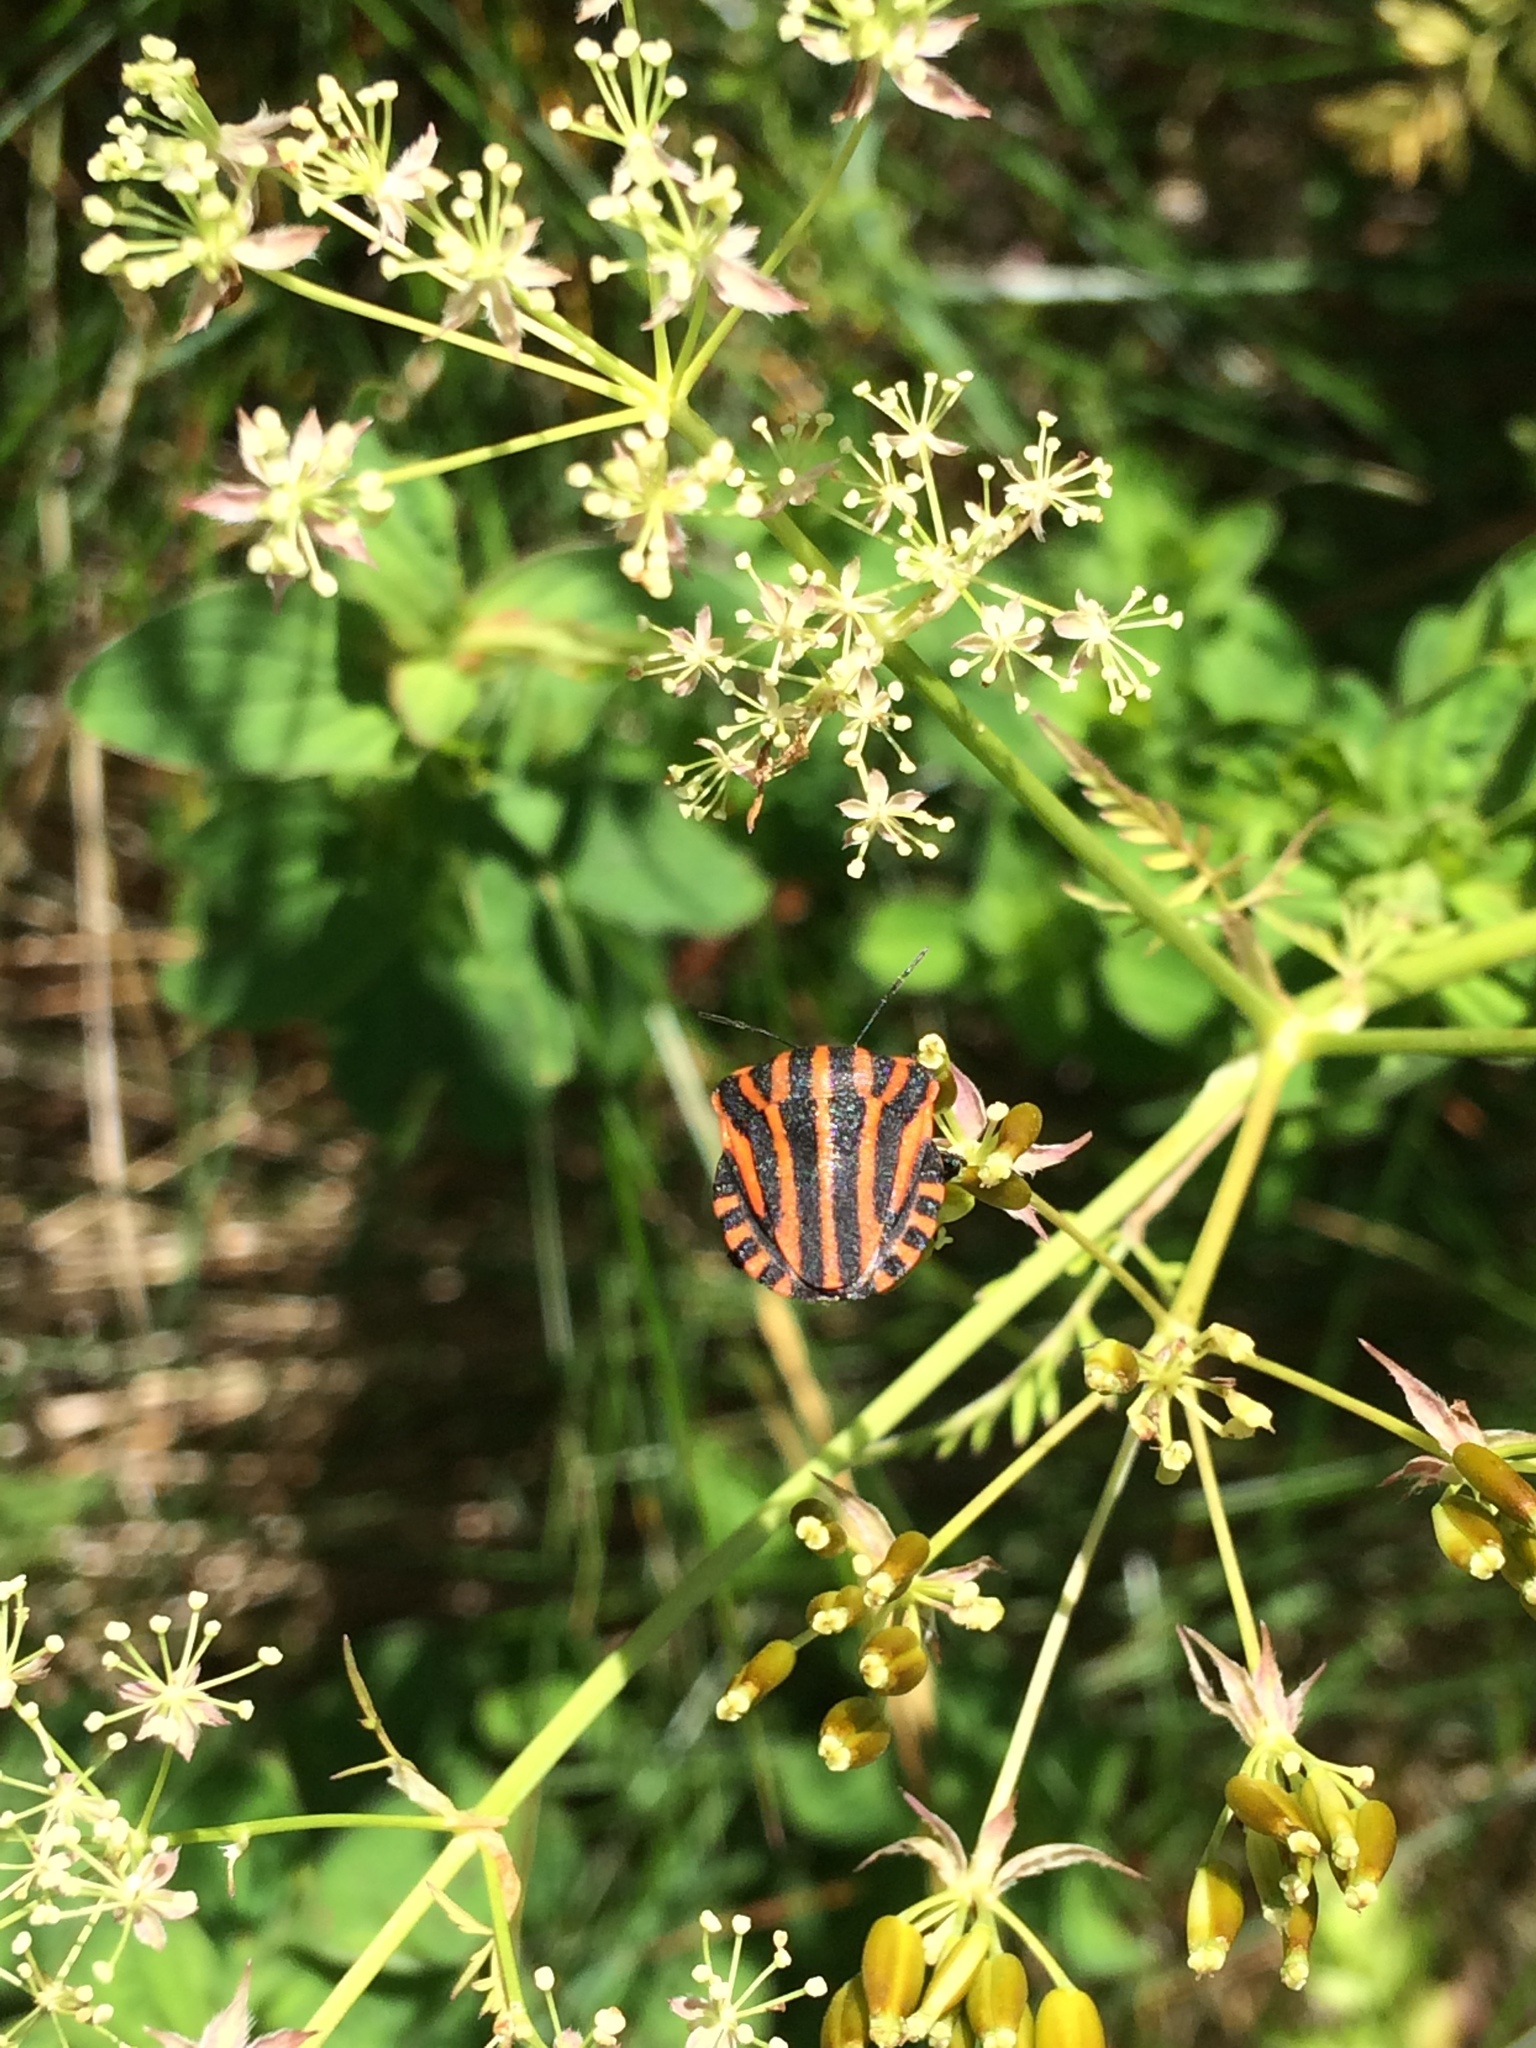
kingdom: Animalia
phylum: Arthropoda
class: Insecta
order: Hemiptera
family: Pentatomidae
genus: Graphosoma
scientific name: Graphosoma italicum
